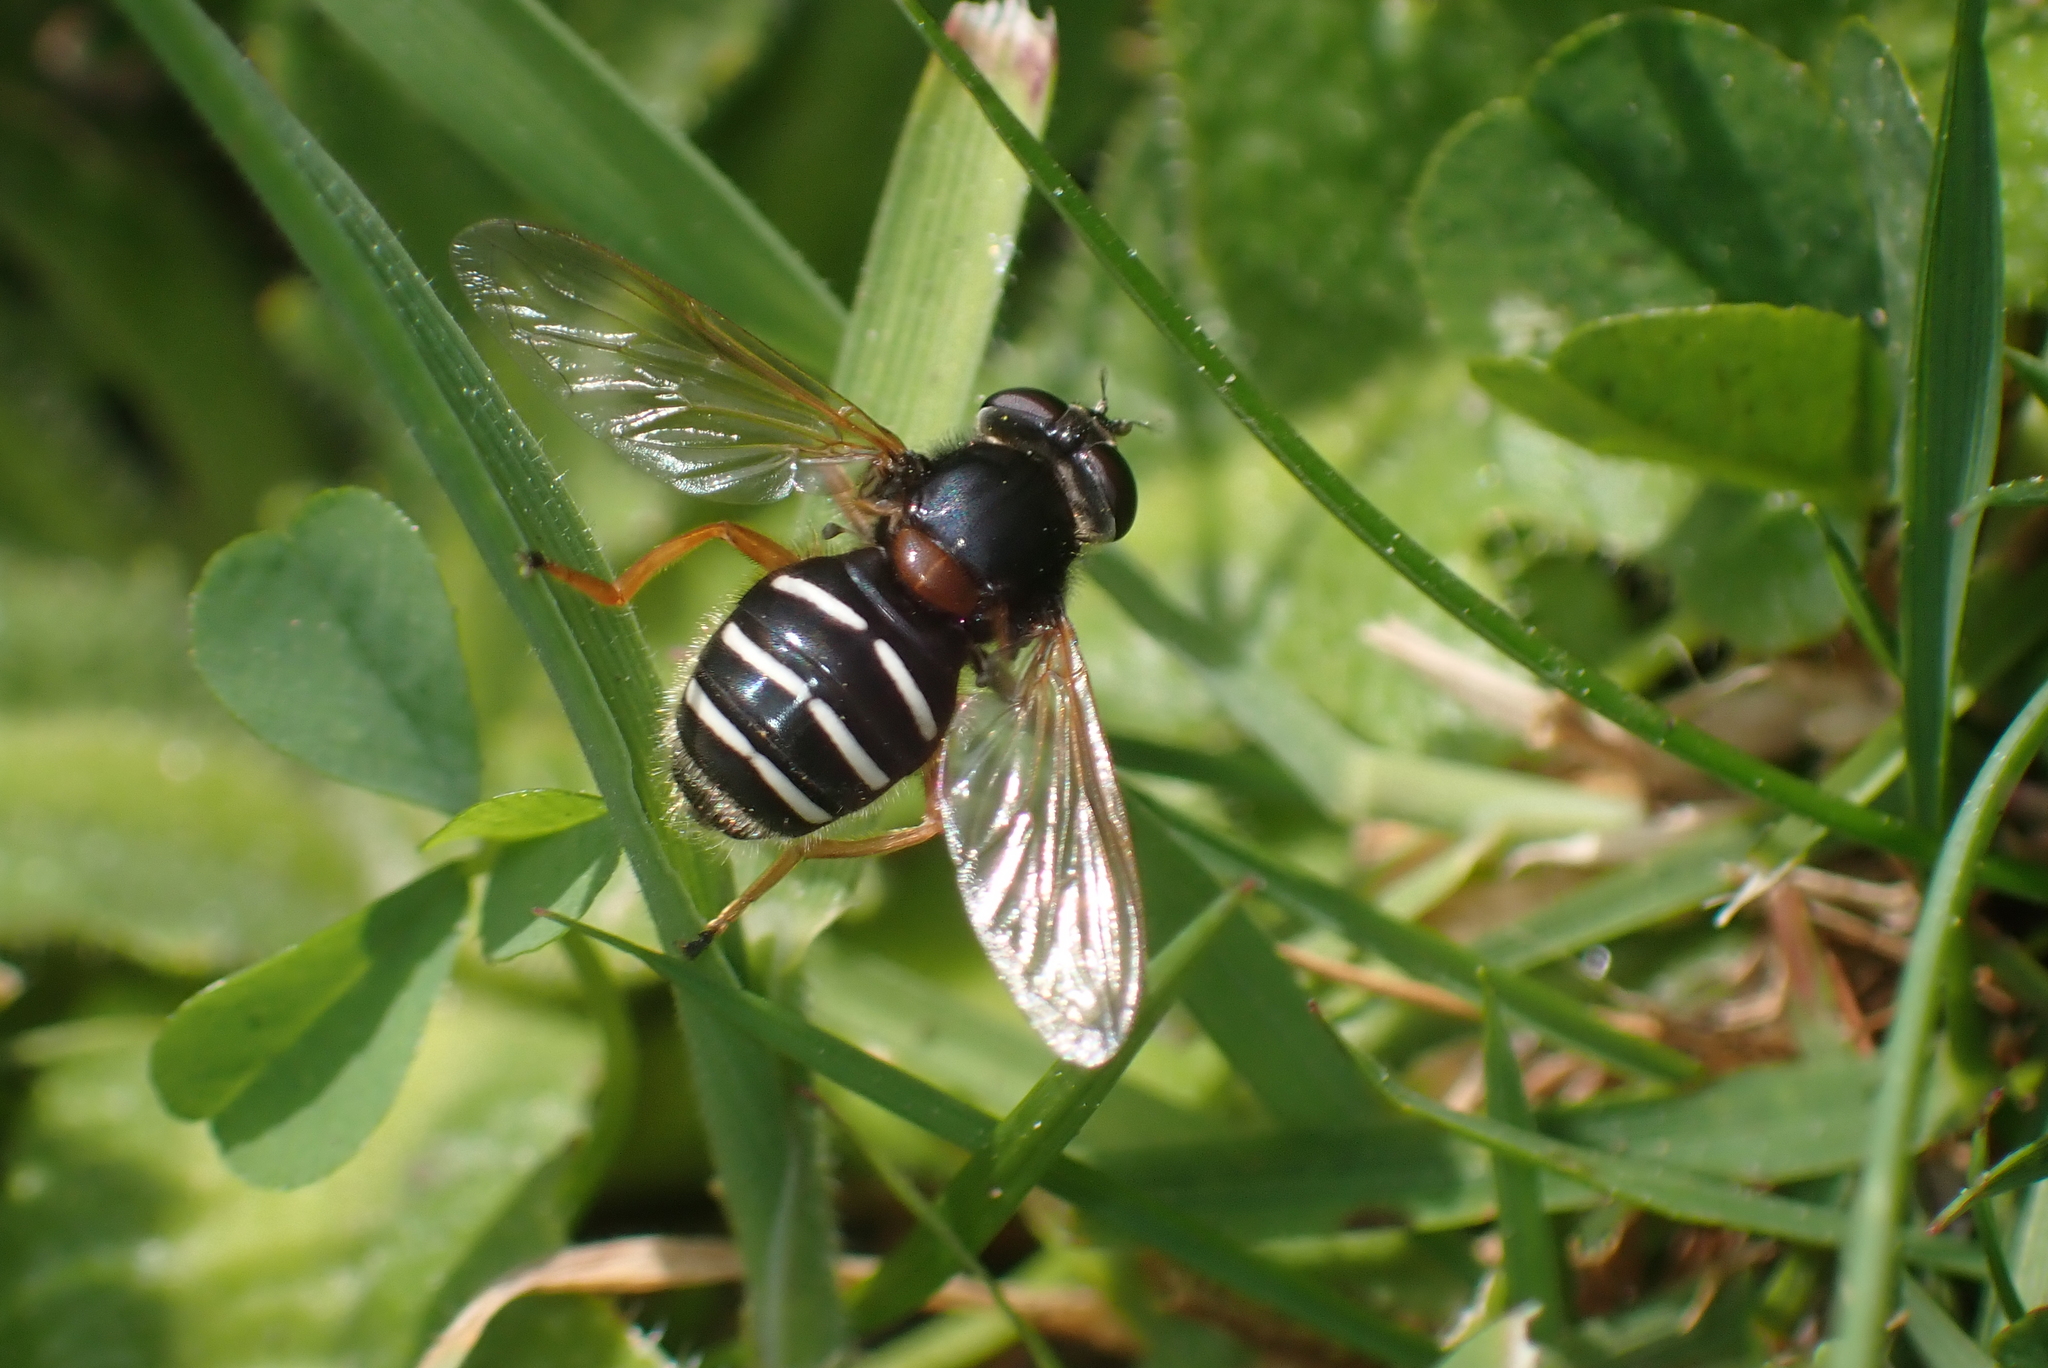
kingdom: Animalia
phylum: Arthropoda
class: Insecta
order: Diptera
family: Syrphidae
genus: Sericomyia
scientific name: Sericomyia lappona
